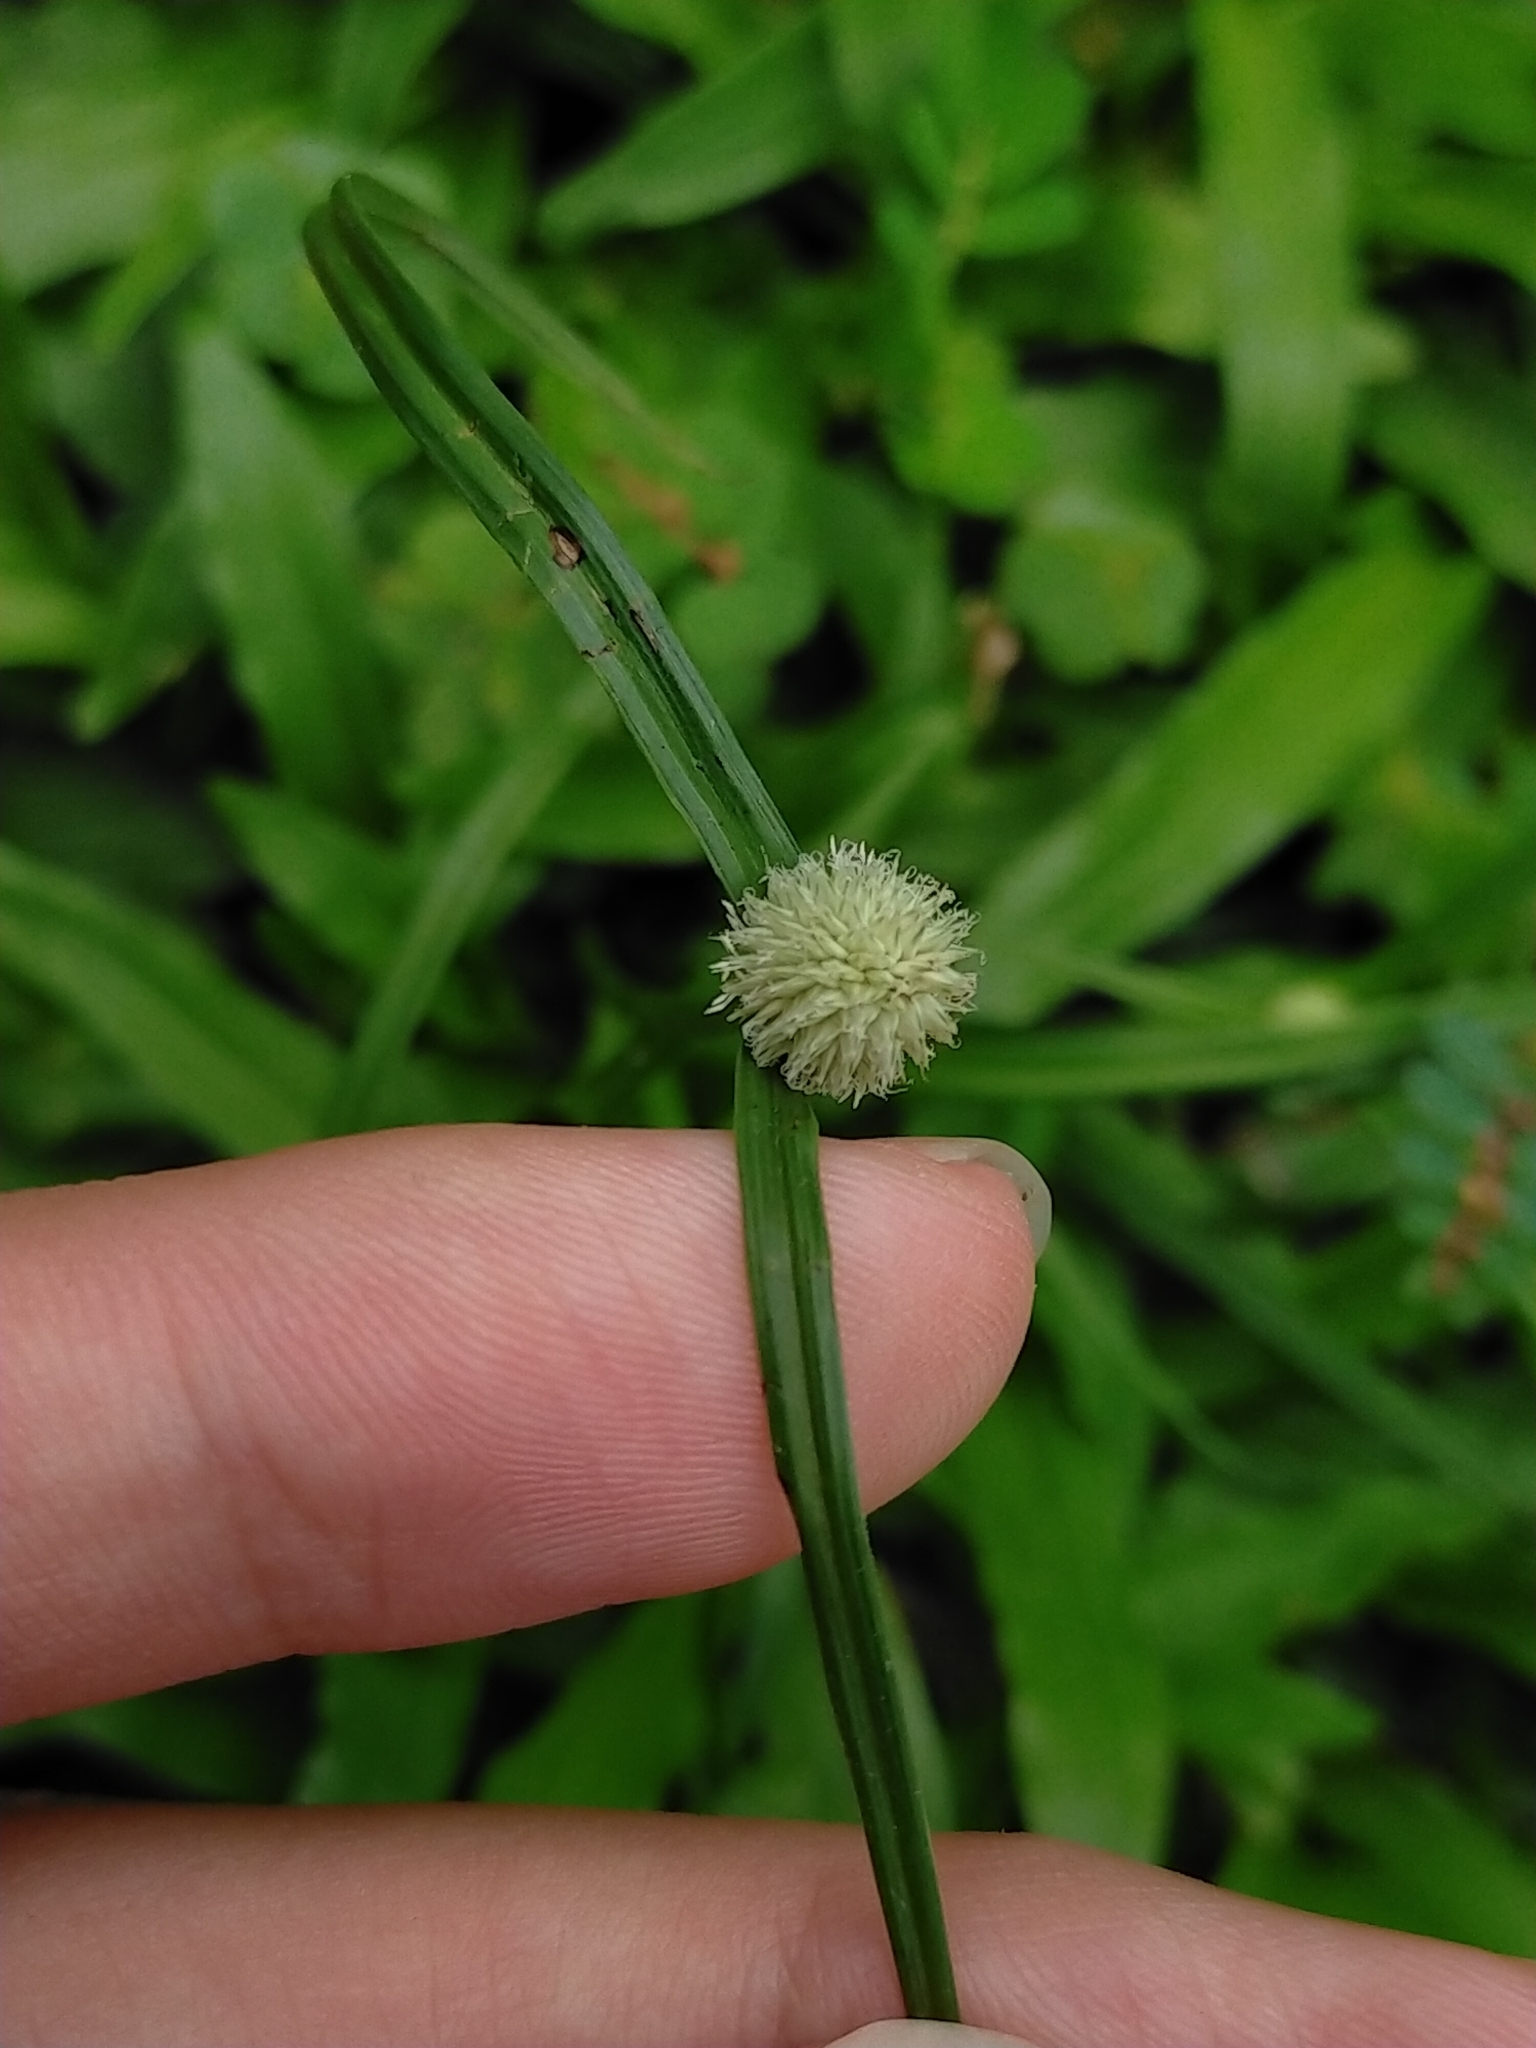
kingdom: Plantae
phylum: Tracheophyta
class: Liliopsida
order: Poales
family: Cyperaceae
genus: Cyperus
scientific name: Cyperus mindorensis
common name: Flatsedge
